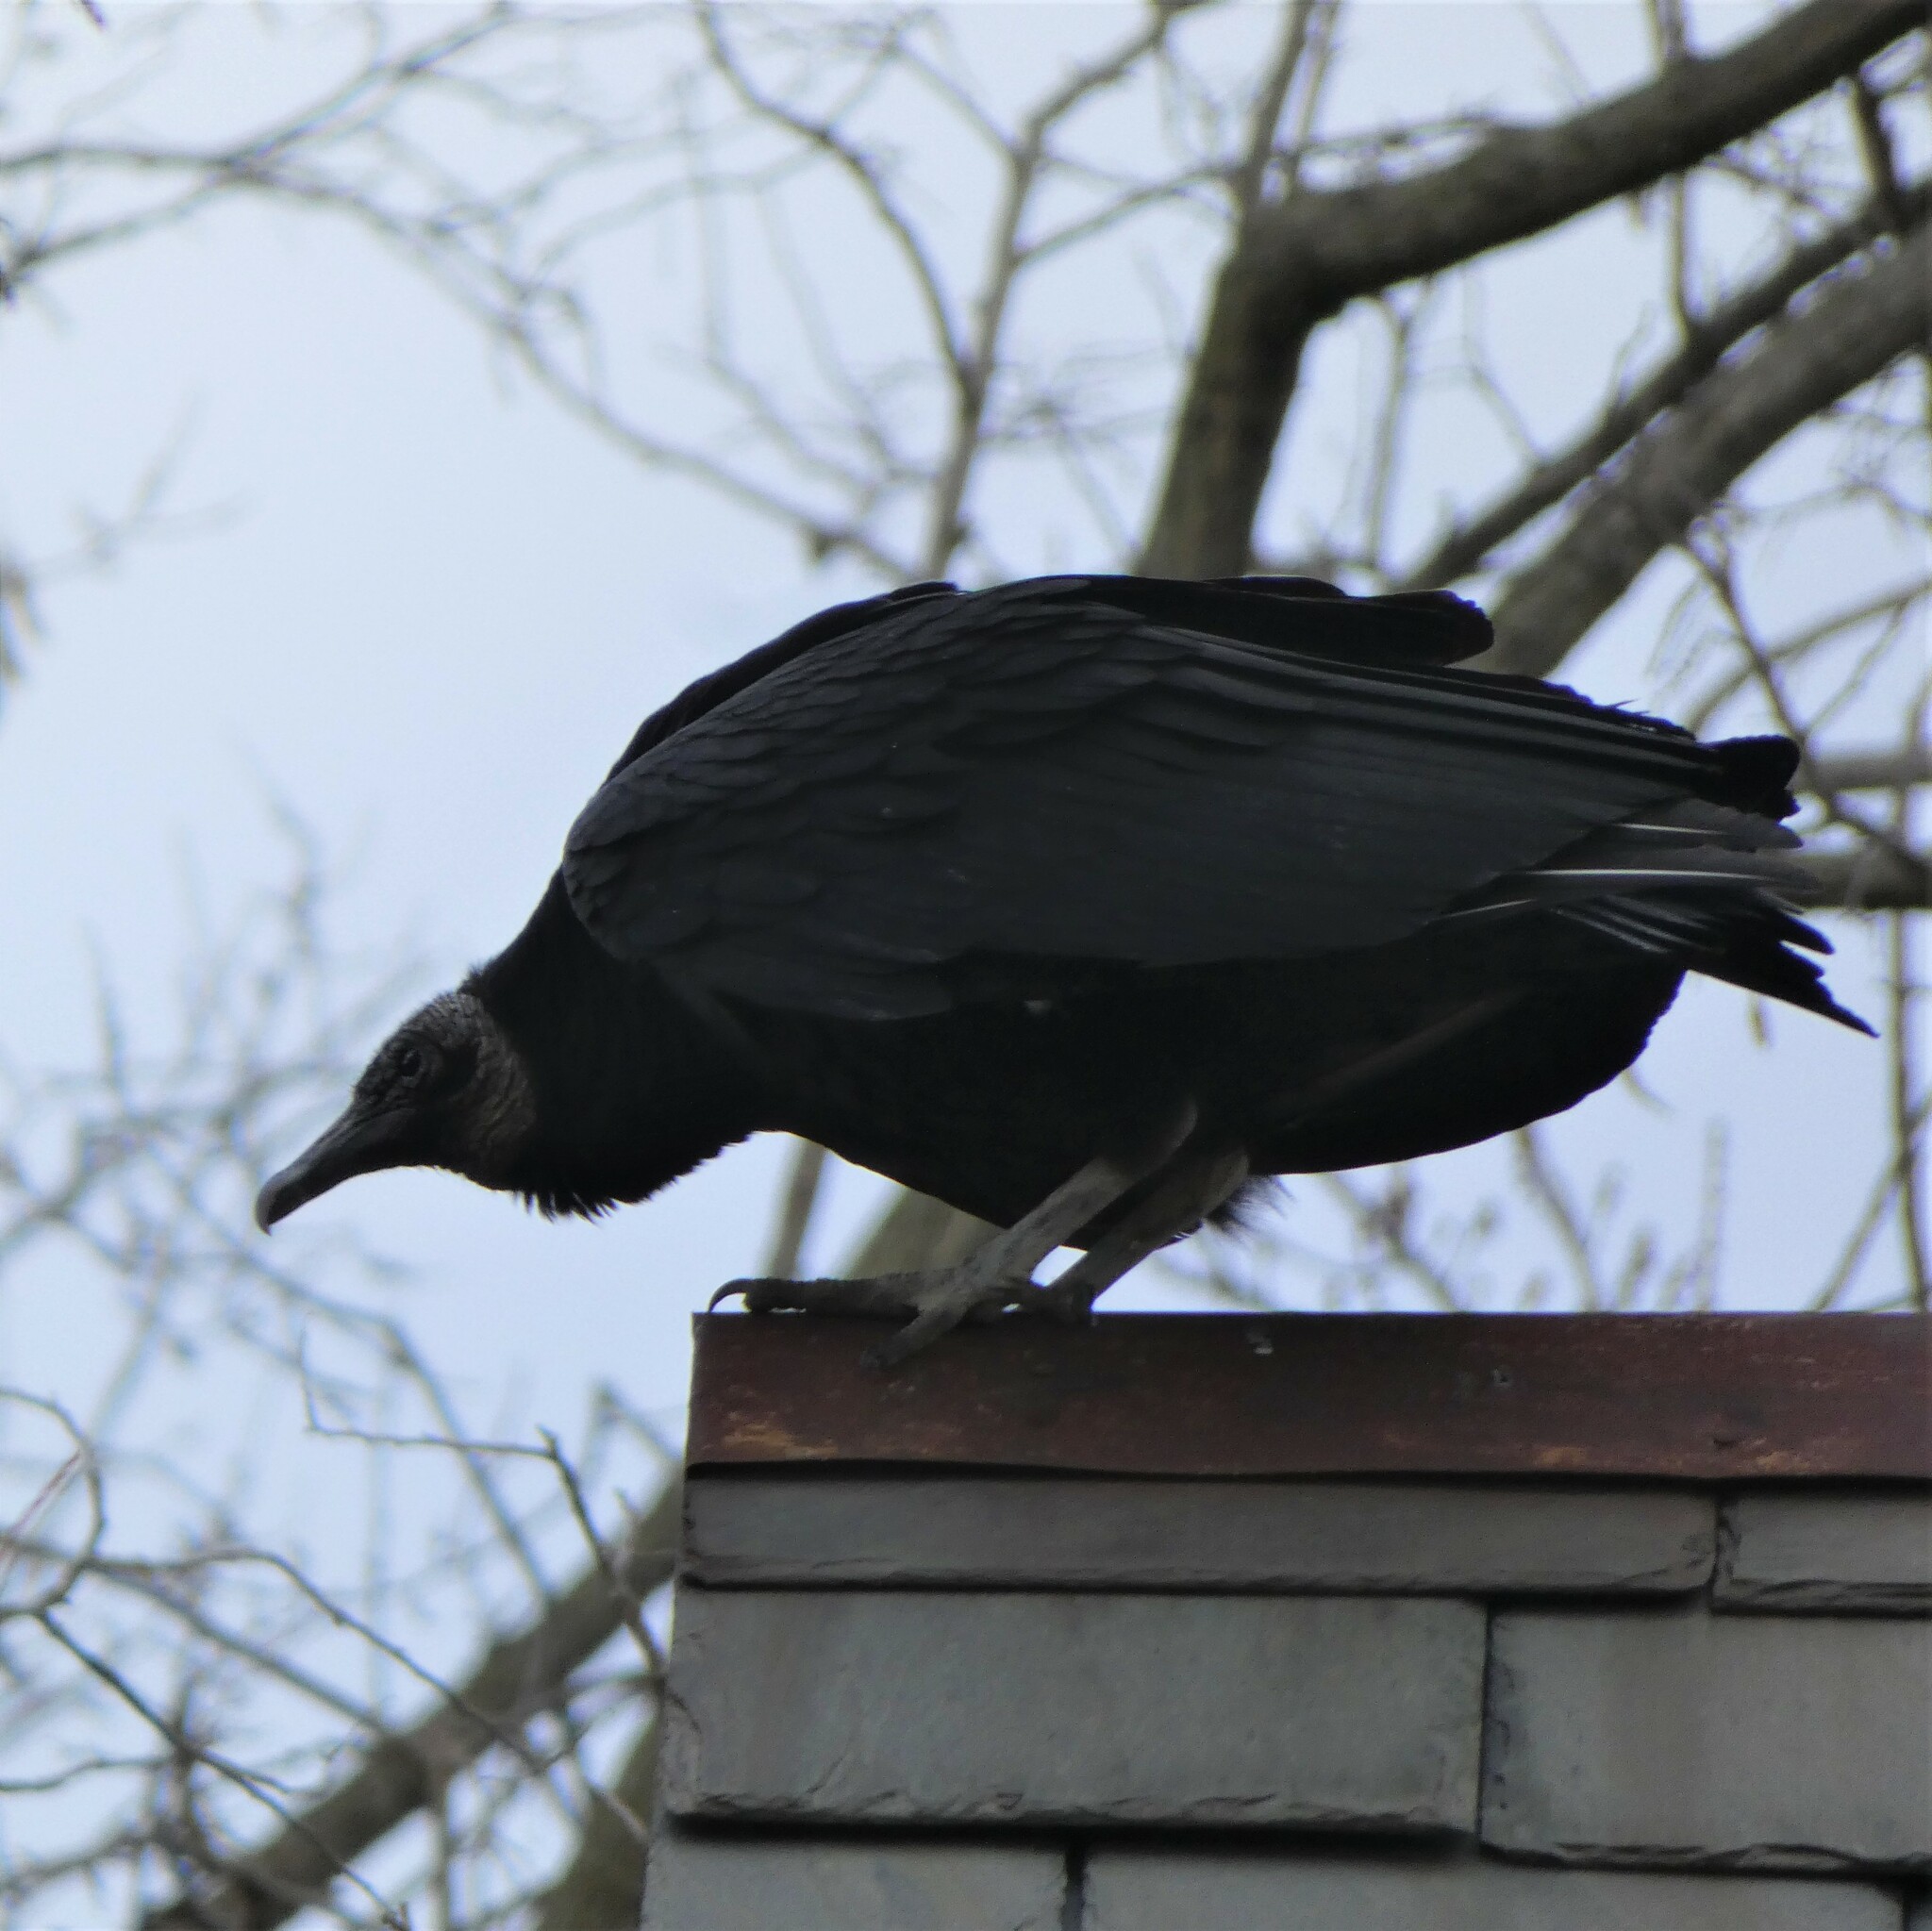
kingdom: Animalia
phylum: Chordata
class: Aves
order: Accipitriformes
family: Cathartidae
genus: Coragyps
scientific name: Coragyps atratus
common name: Black vulture
